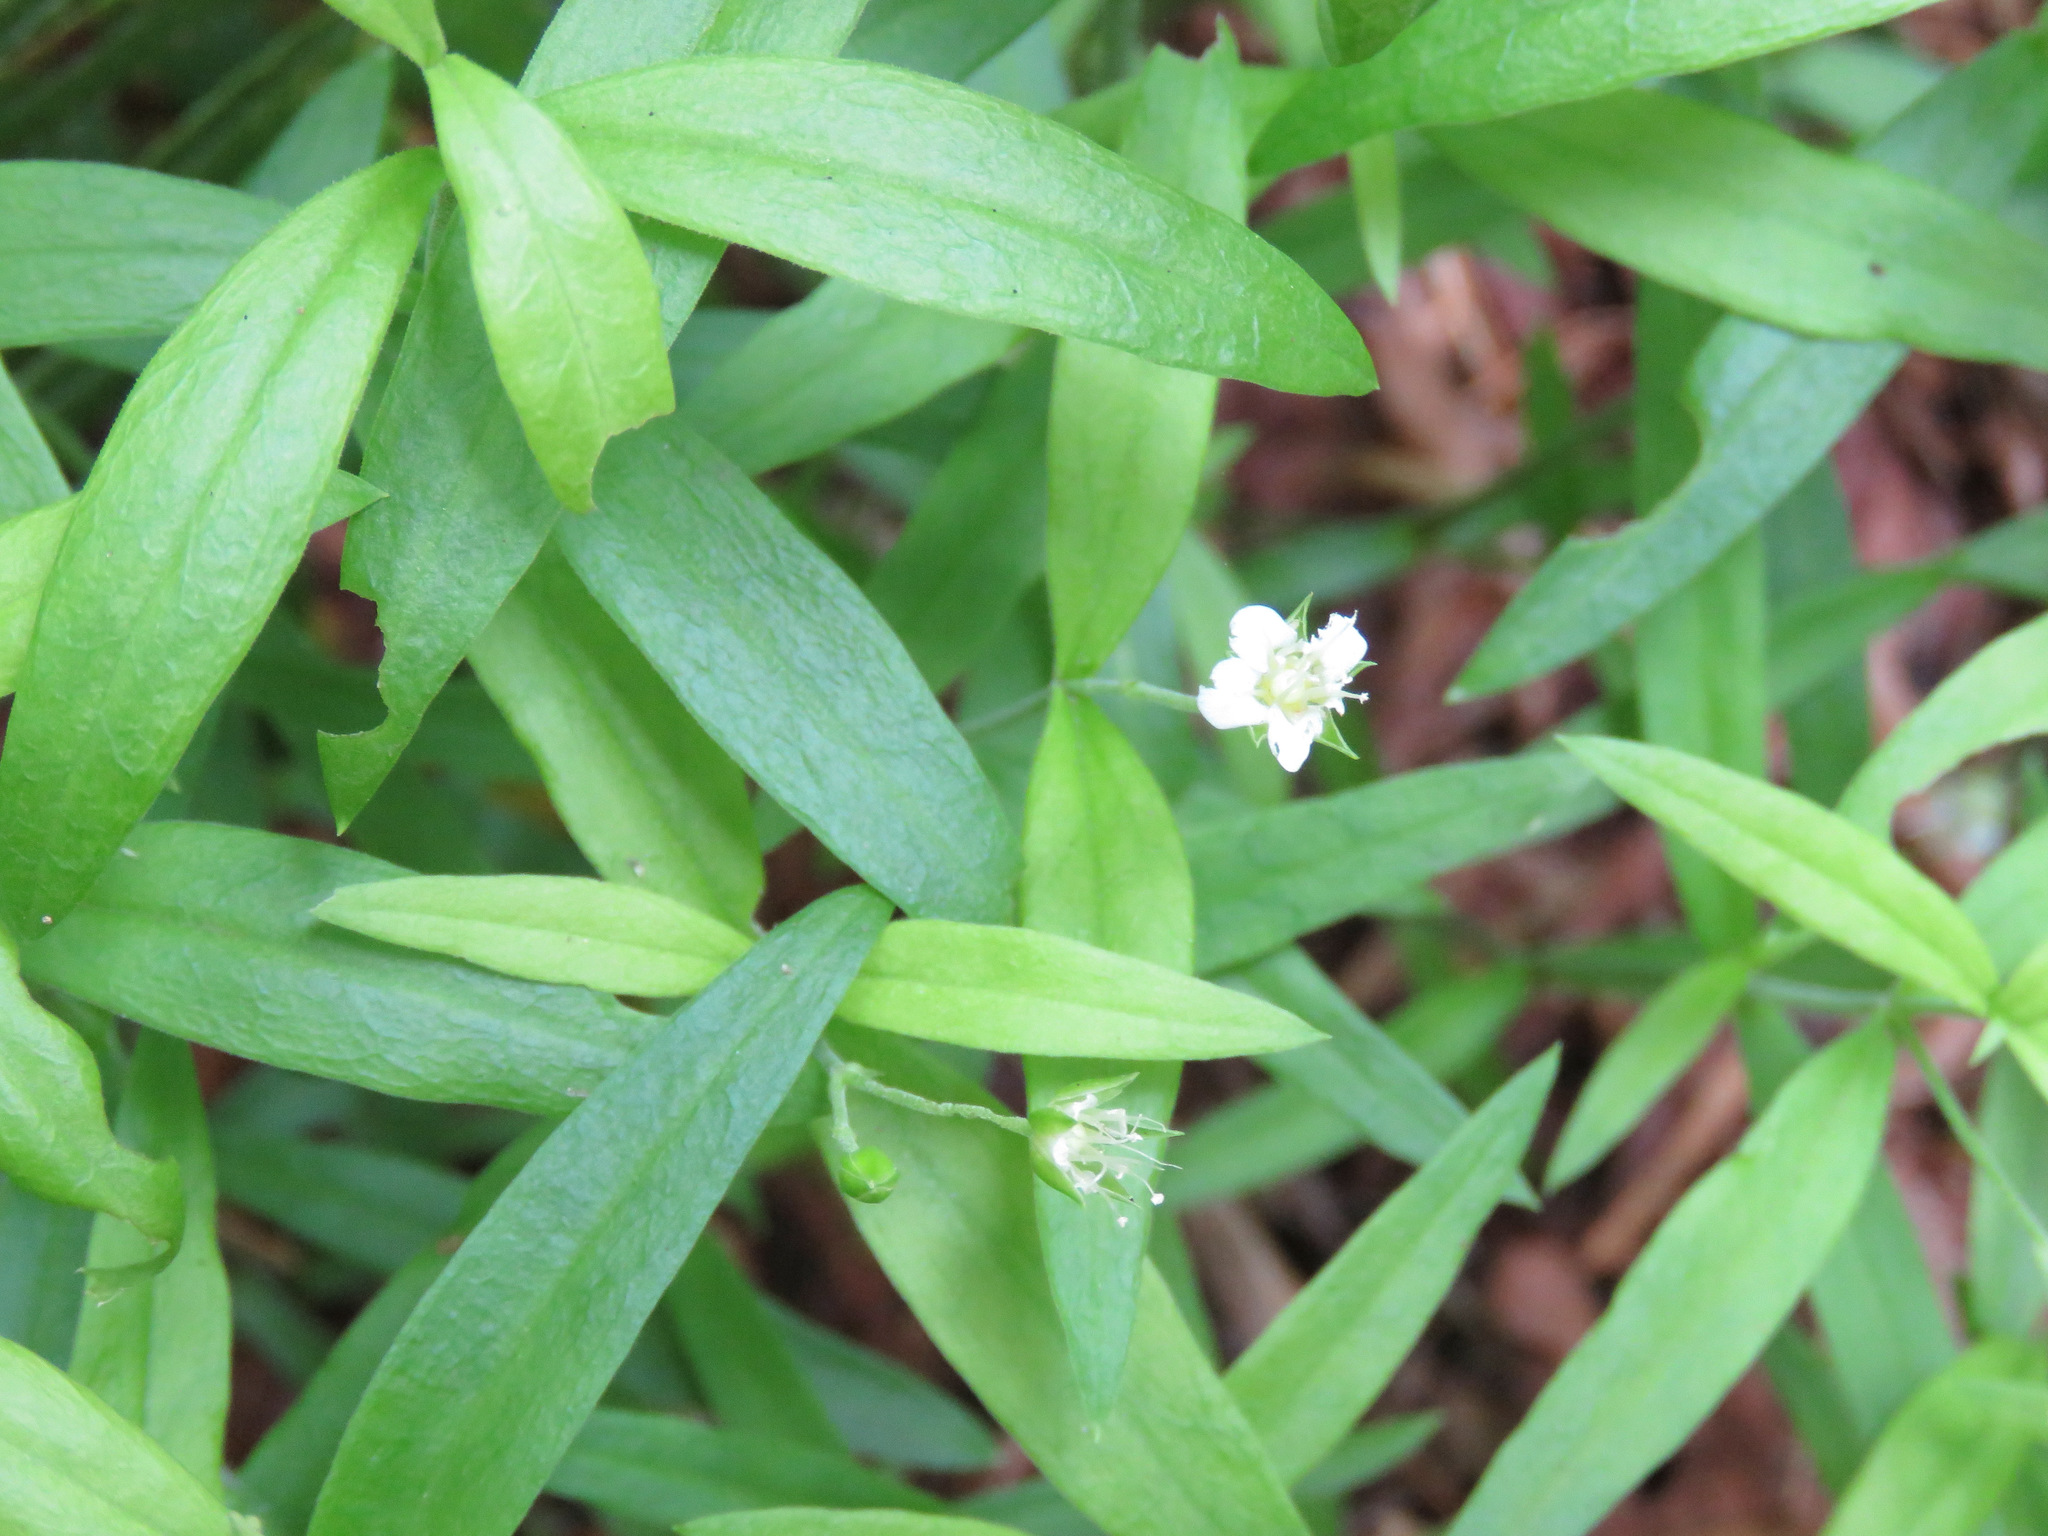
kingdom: Plantae
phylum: Tracheophyta
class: Magnoliopsida
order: Caryophyllales
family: Caryophyllaceae
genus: Moehringia
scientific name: Moehringia macrophylla
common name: Big-leaf sandwort
